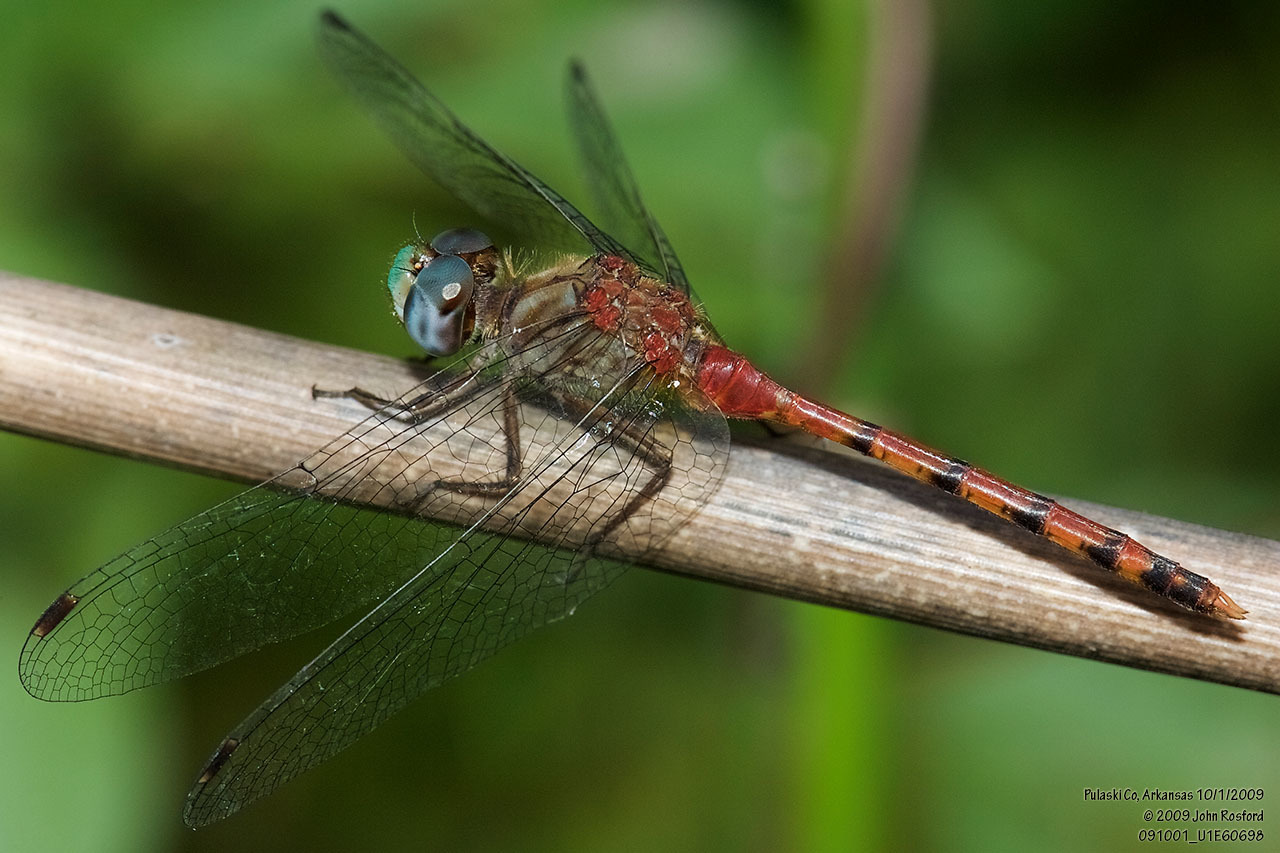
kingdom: Animalia
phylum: Arthropoda
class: Insecta
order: Odonata
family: Libellulidae
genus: Sympetrum
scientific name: Sympetrum ambiguum
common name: Blue-faced meadowhawk
